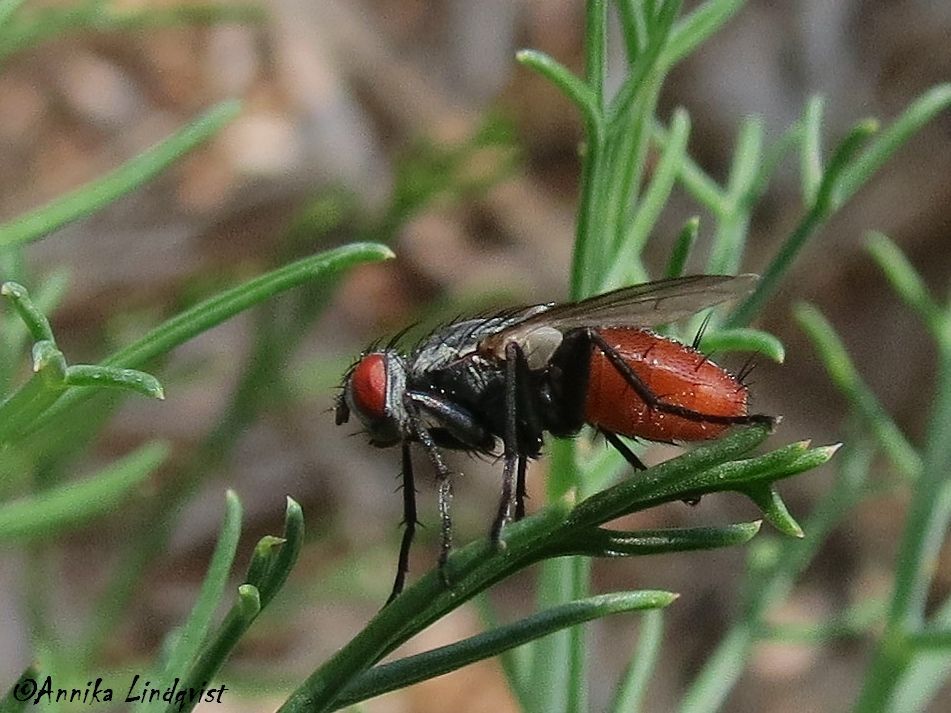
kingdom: Animalia
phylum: Arthropoda
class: Insecta
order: Diptera
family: Sarcophagidae
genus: Rafaelia
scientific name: Rafaelia rufiventris
